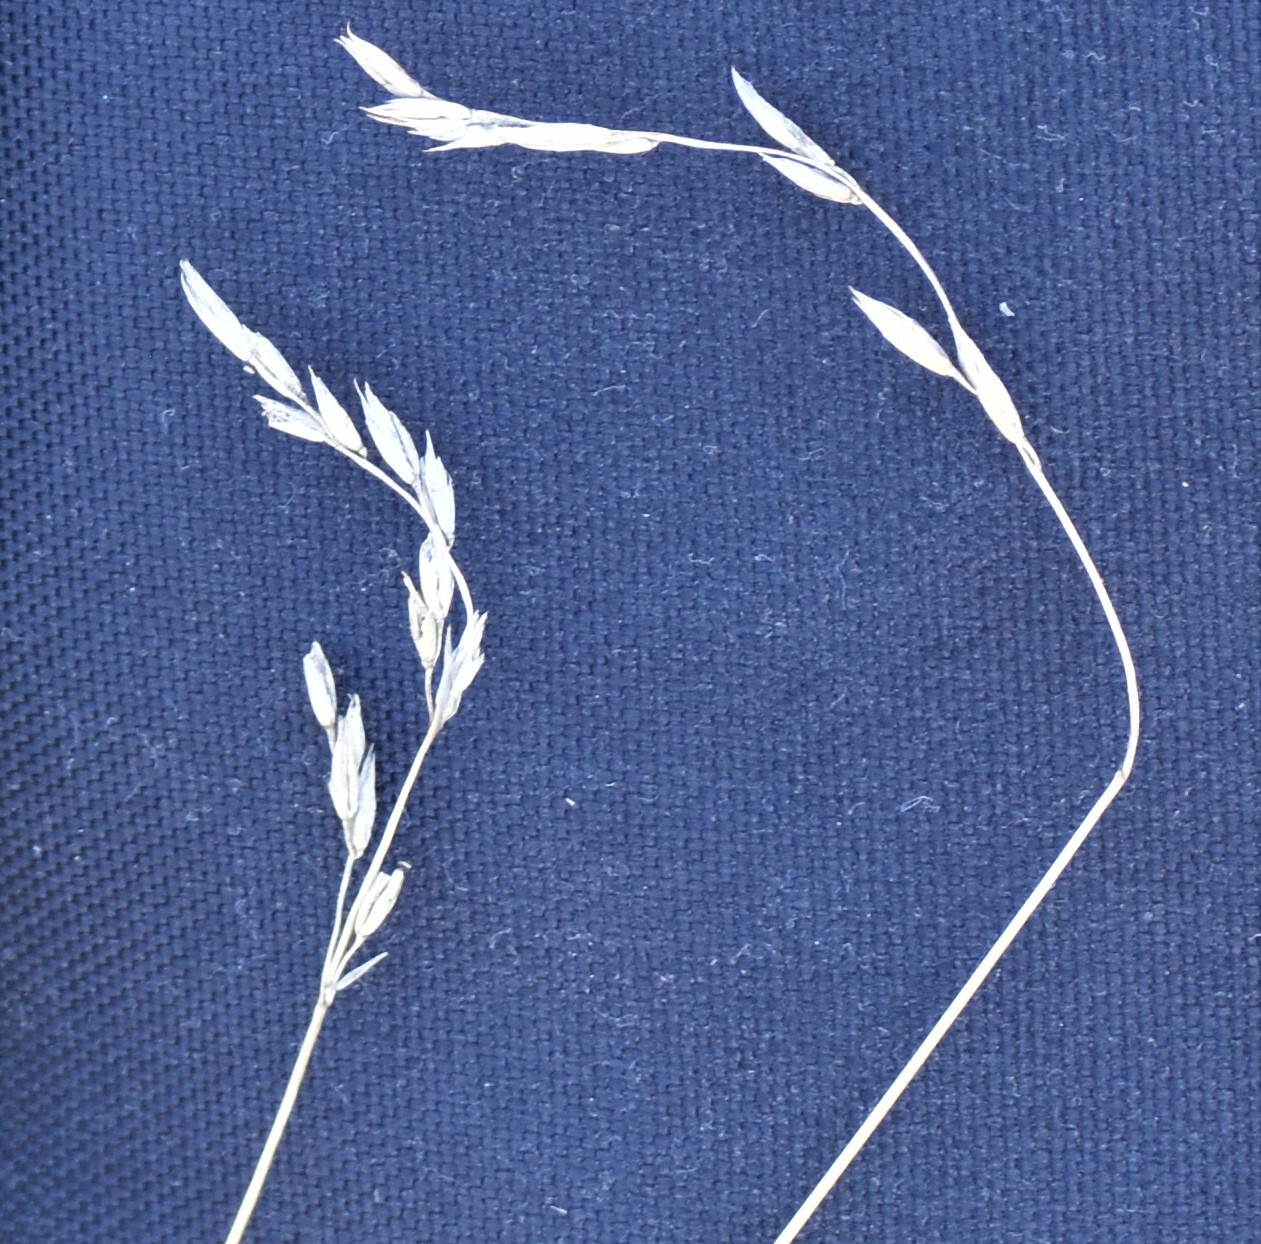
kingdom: Plantae
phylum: Tracheophyta
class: Liliopsida
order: Poales
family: Poaceae
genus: Festuca
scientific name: Festuca hallii
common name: Hall's fescue
